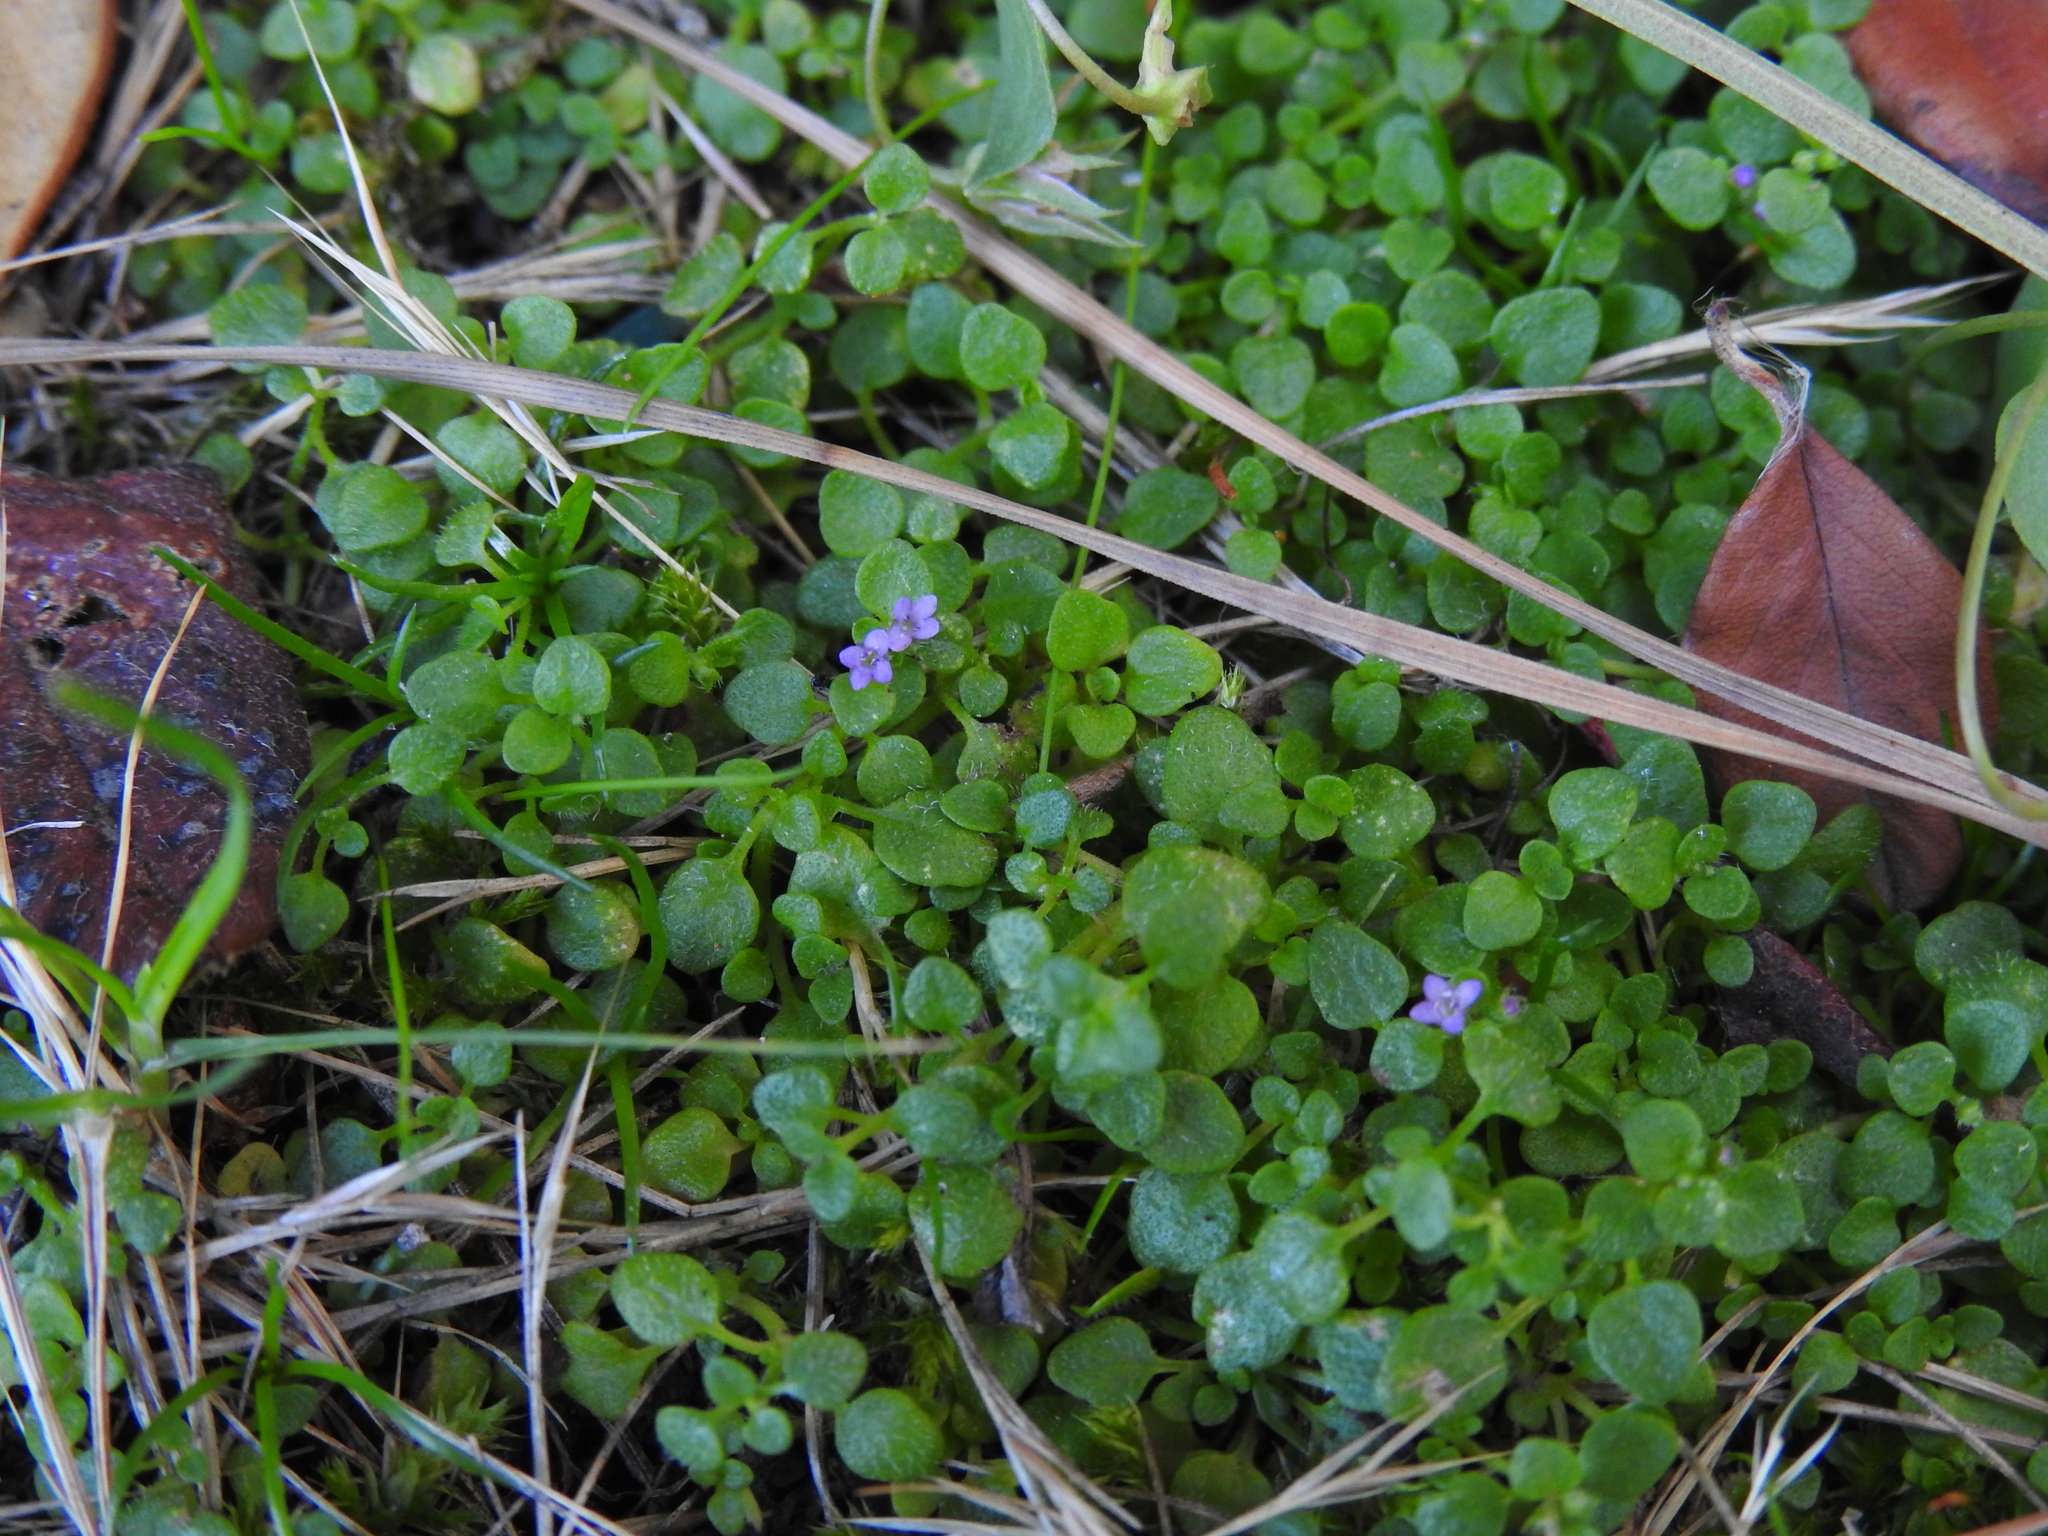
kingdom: Plantae
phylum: Tracheophyta
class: Magnoliopsida
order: Lamiales
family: Lamiaceae
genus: Mentha
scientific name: Mentha requienii
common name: Corsican mint
